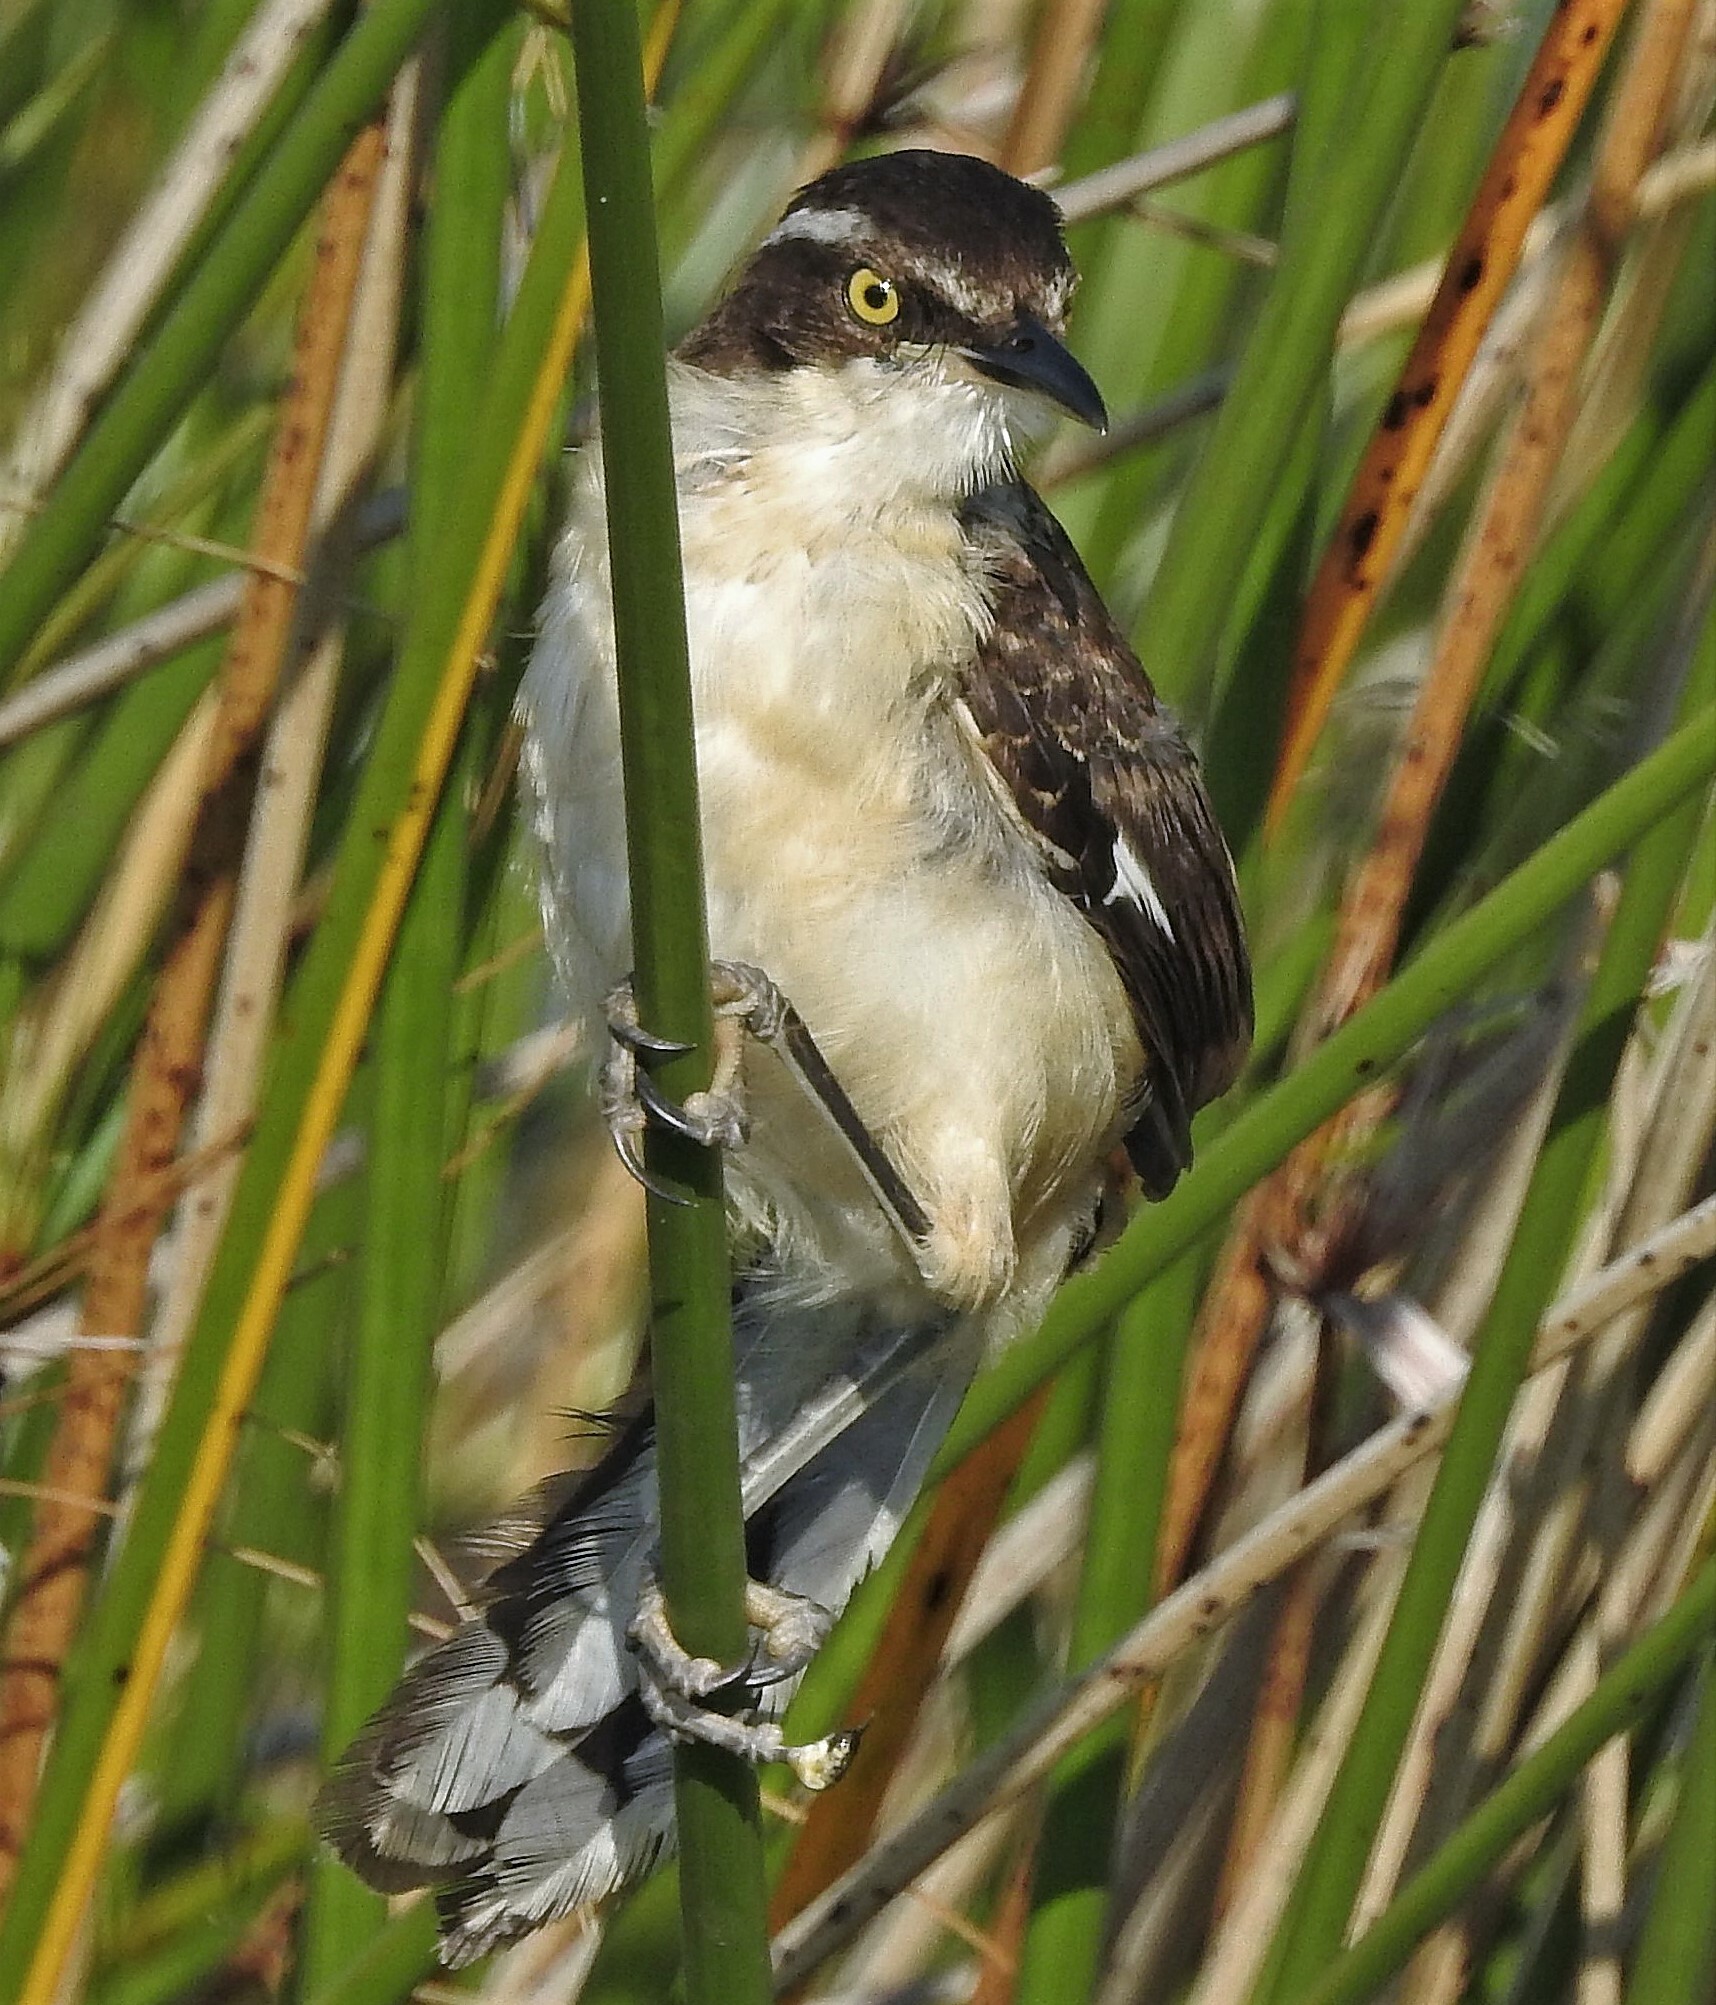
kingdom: Animalia
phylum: Chordata
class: Aves
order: Passeriformes
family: Donacobiidae
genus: Donacobius
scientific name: Donacobius atricapilla
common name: Black-capped donacobius
